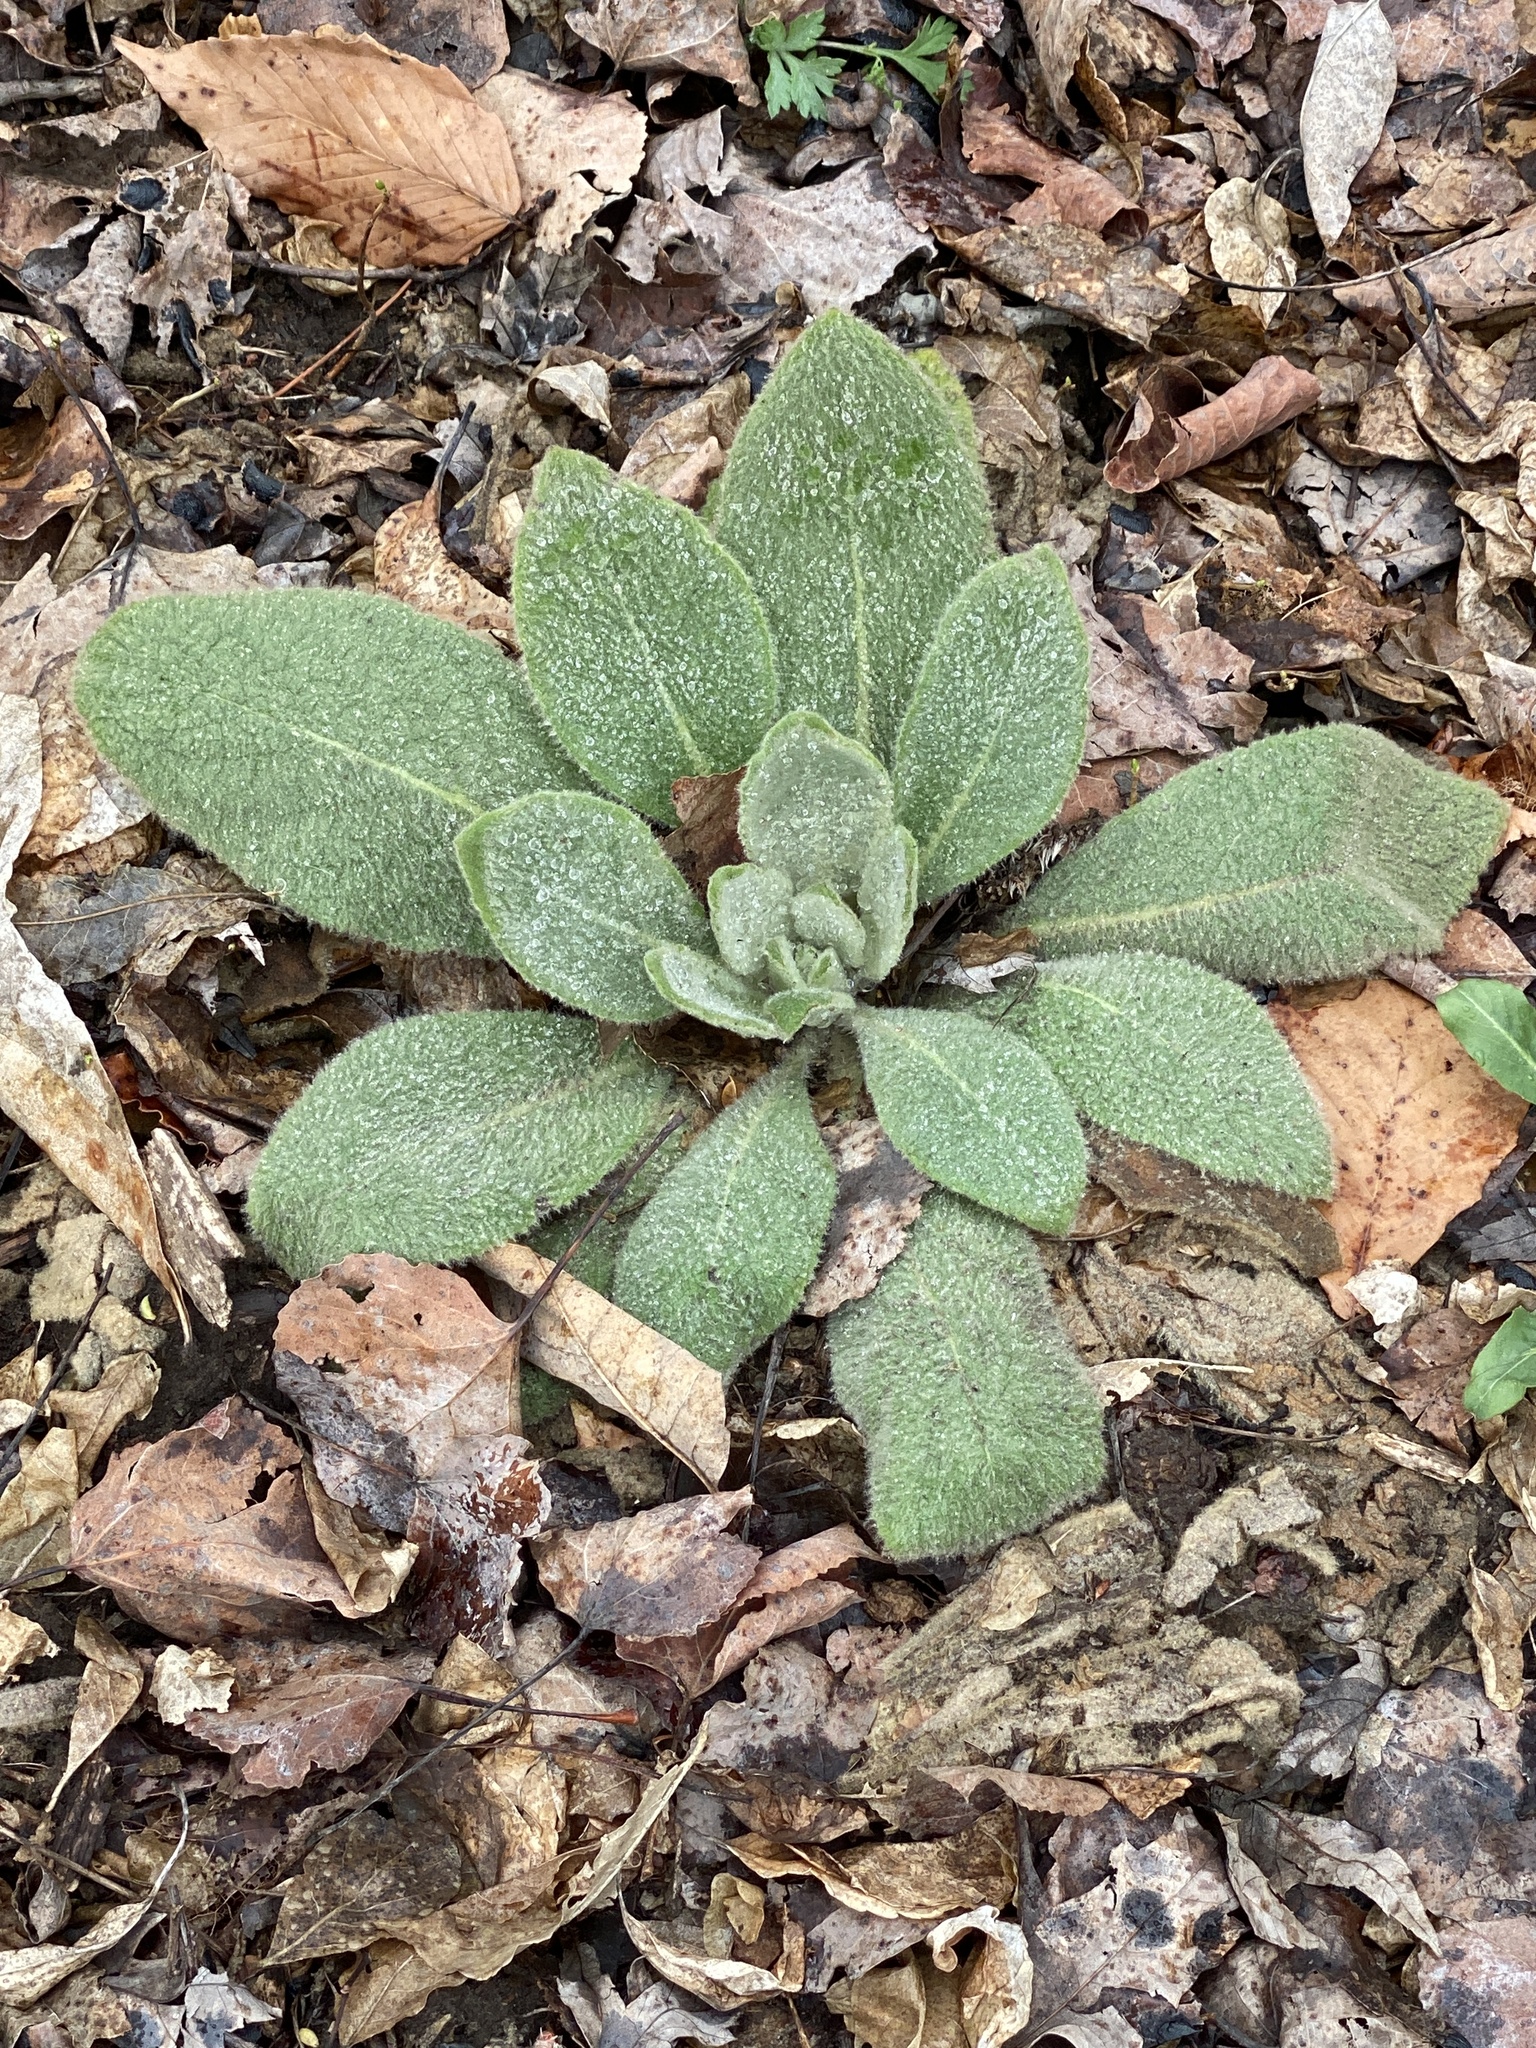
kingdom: Plantae
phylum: Tracheophyta
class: Magnoliopsida
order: Lamiales
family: Scrophulariaceae
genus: Verbascum
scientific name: Verbascum thapsus
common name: Common mullein
